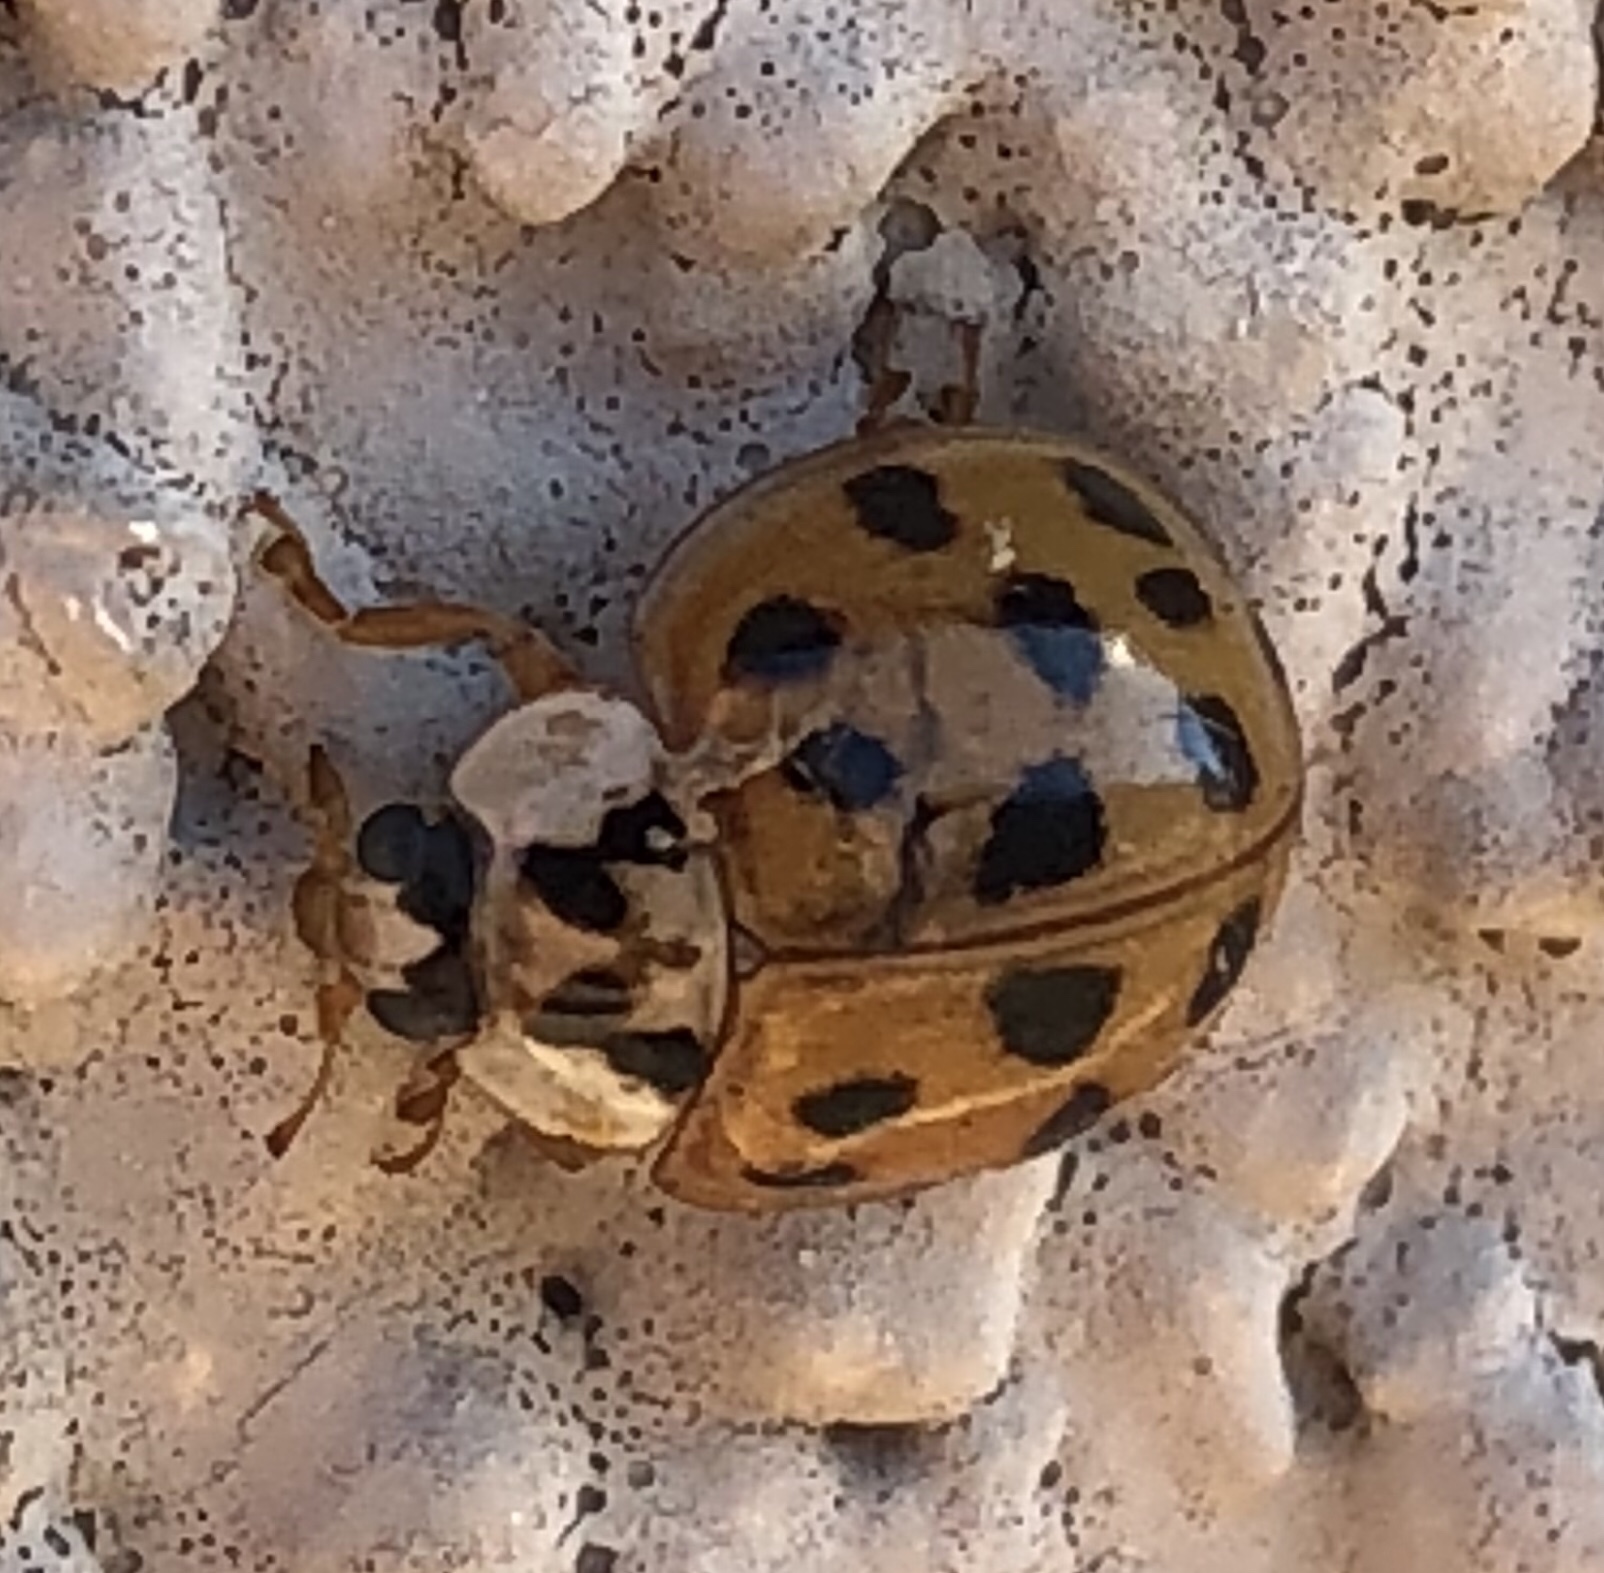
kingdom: Animalia
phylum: Arthropoda
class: Insecta
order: Coleoptera
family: Coccinellidae
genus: Harmonia
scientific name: Harmonia axyridis
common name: Harlequin ladybird
